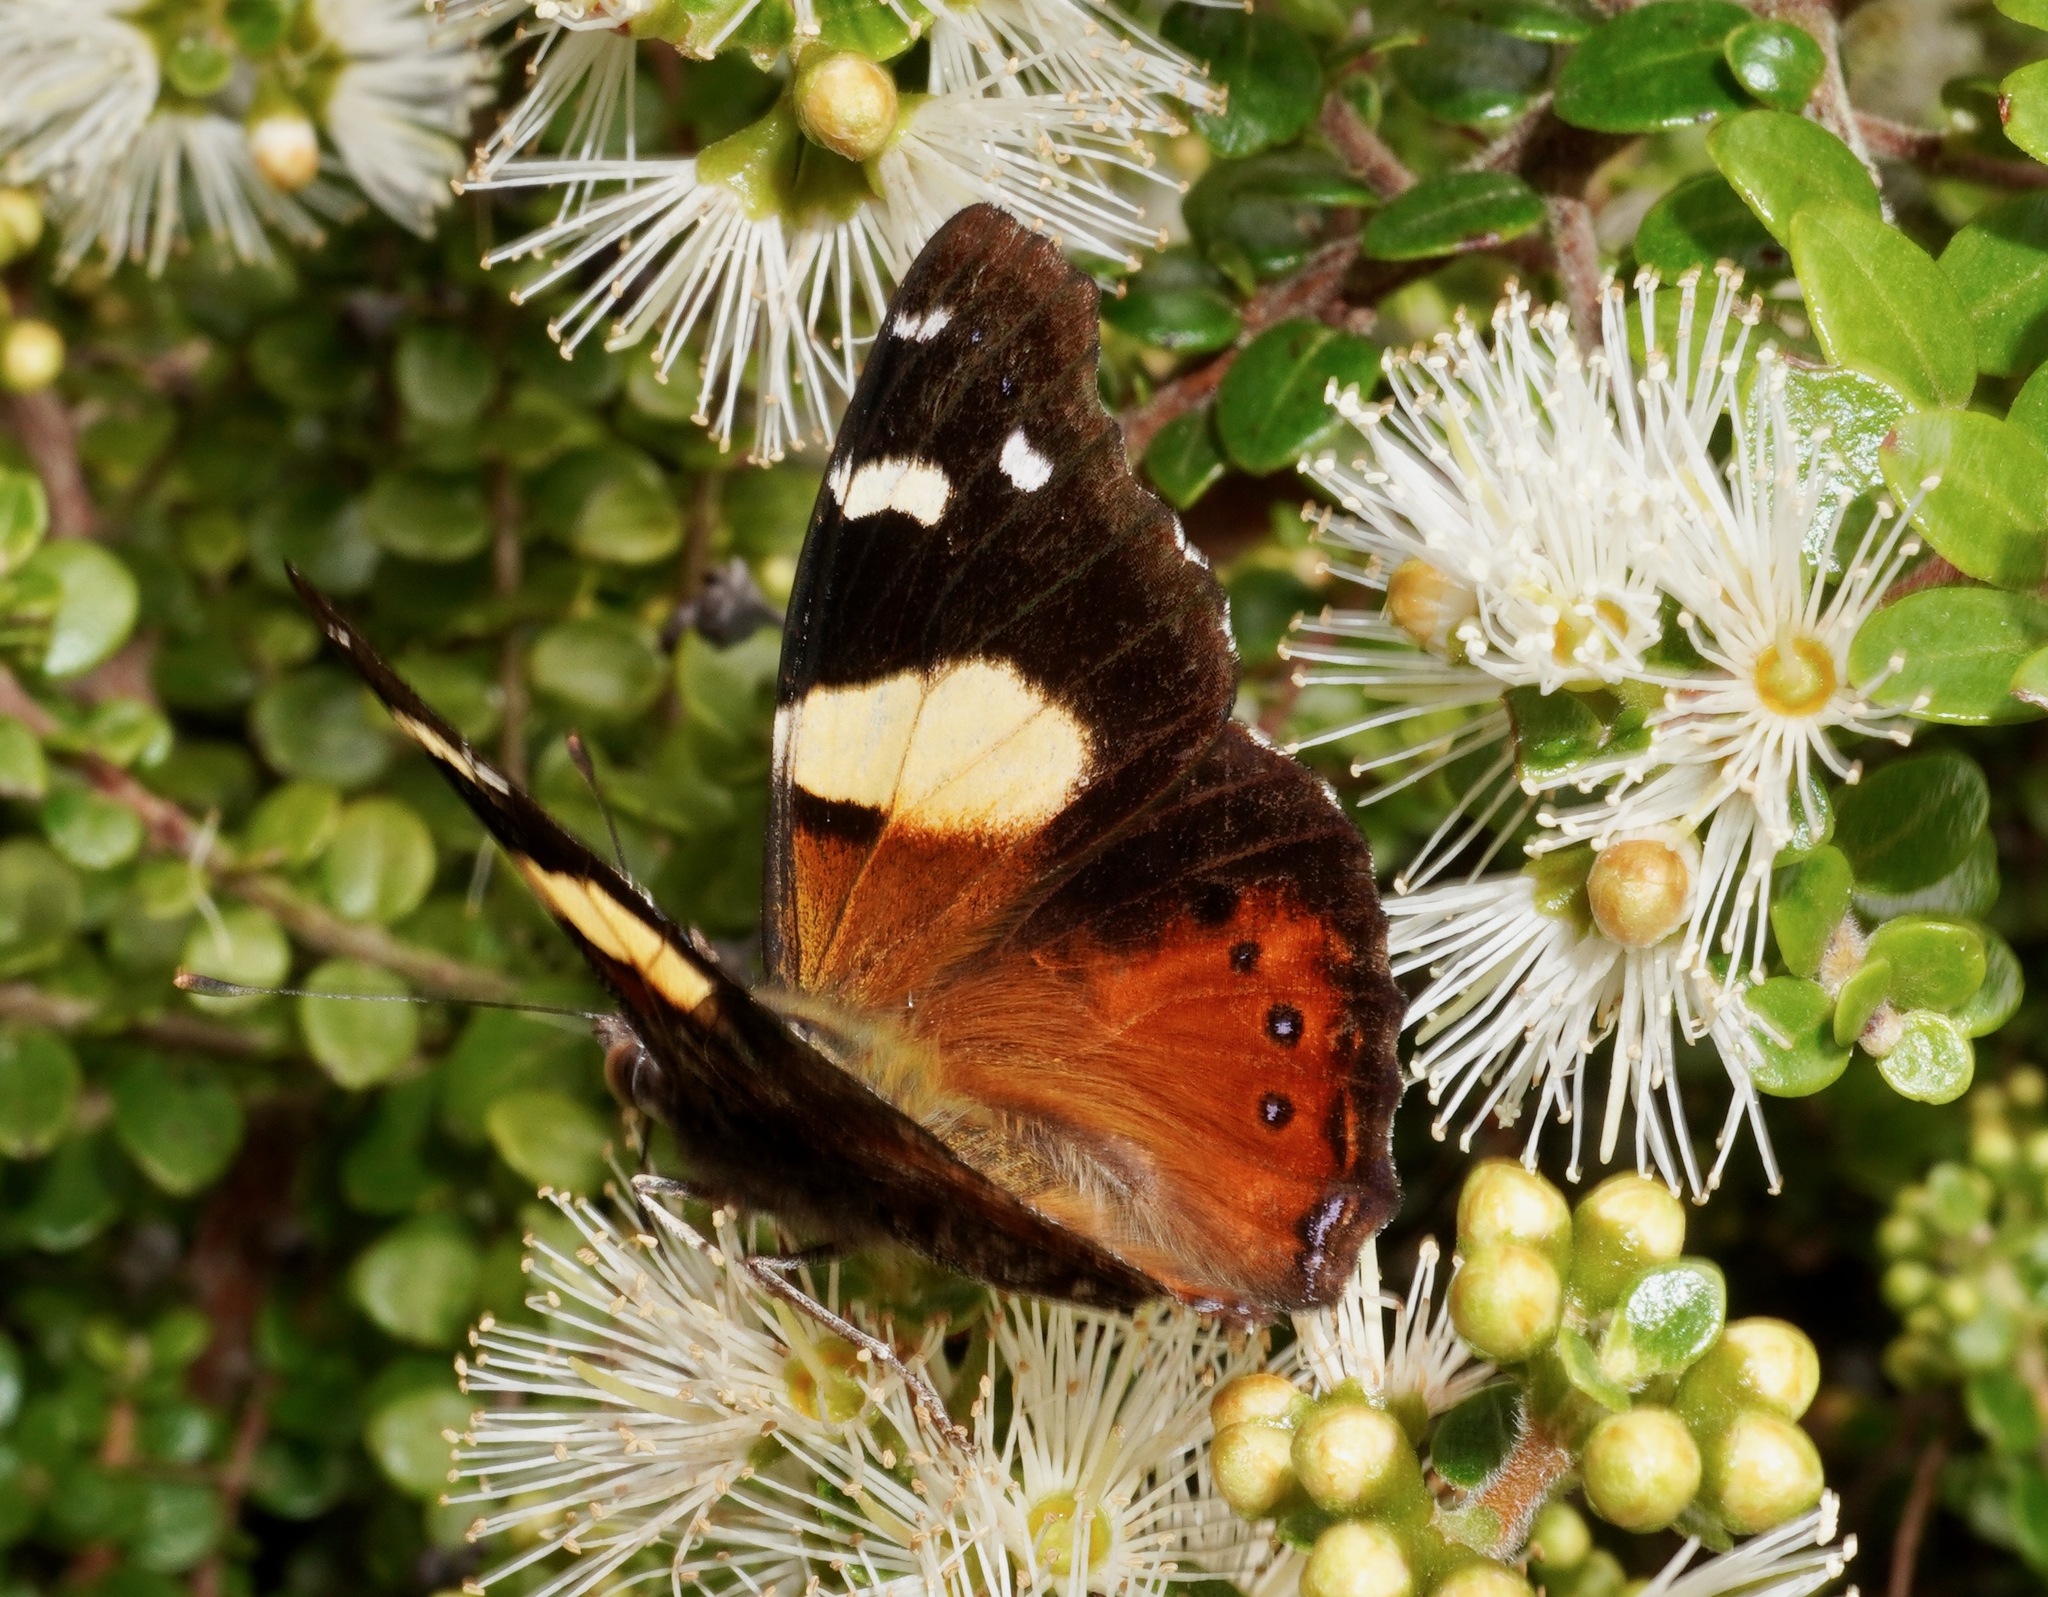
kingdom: Animalia
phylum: Arthropoda
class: Insecta
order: Lepidoptera
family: Nymphalidae
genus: Vanessa
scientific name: Vanessa itea
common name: Yellow admiral
